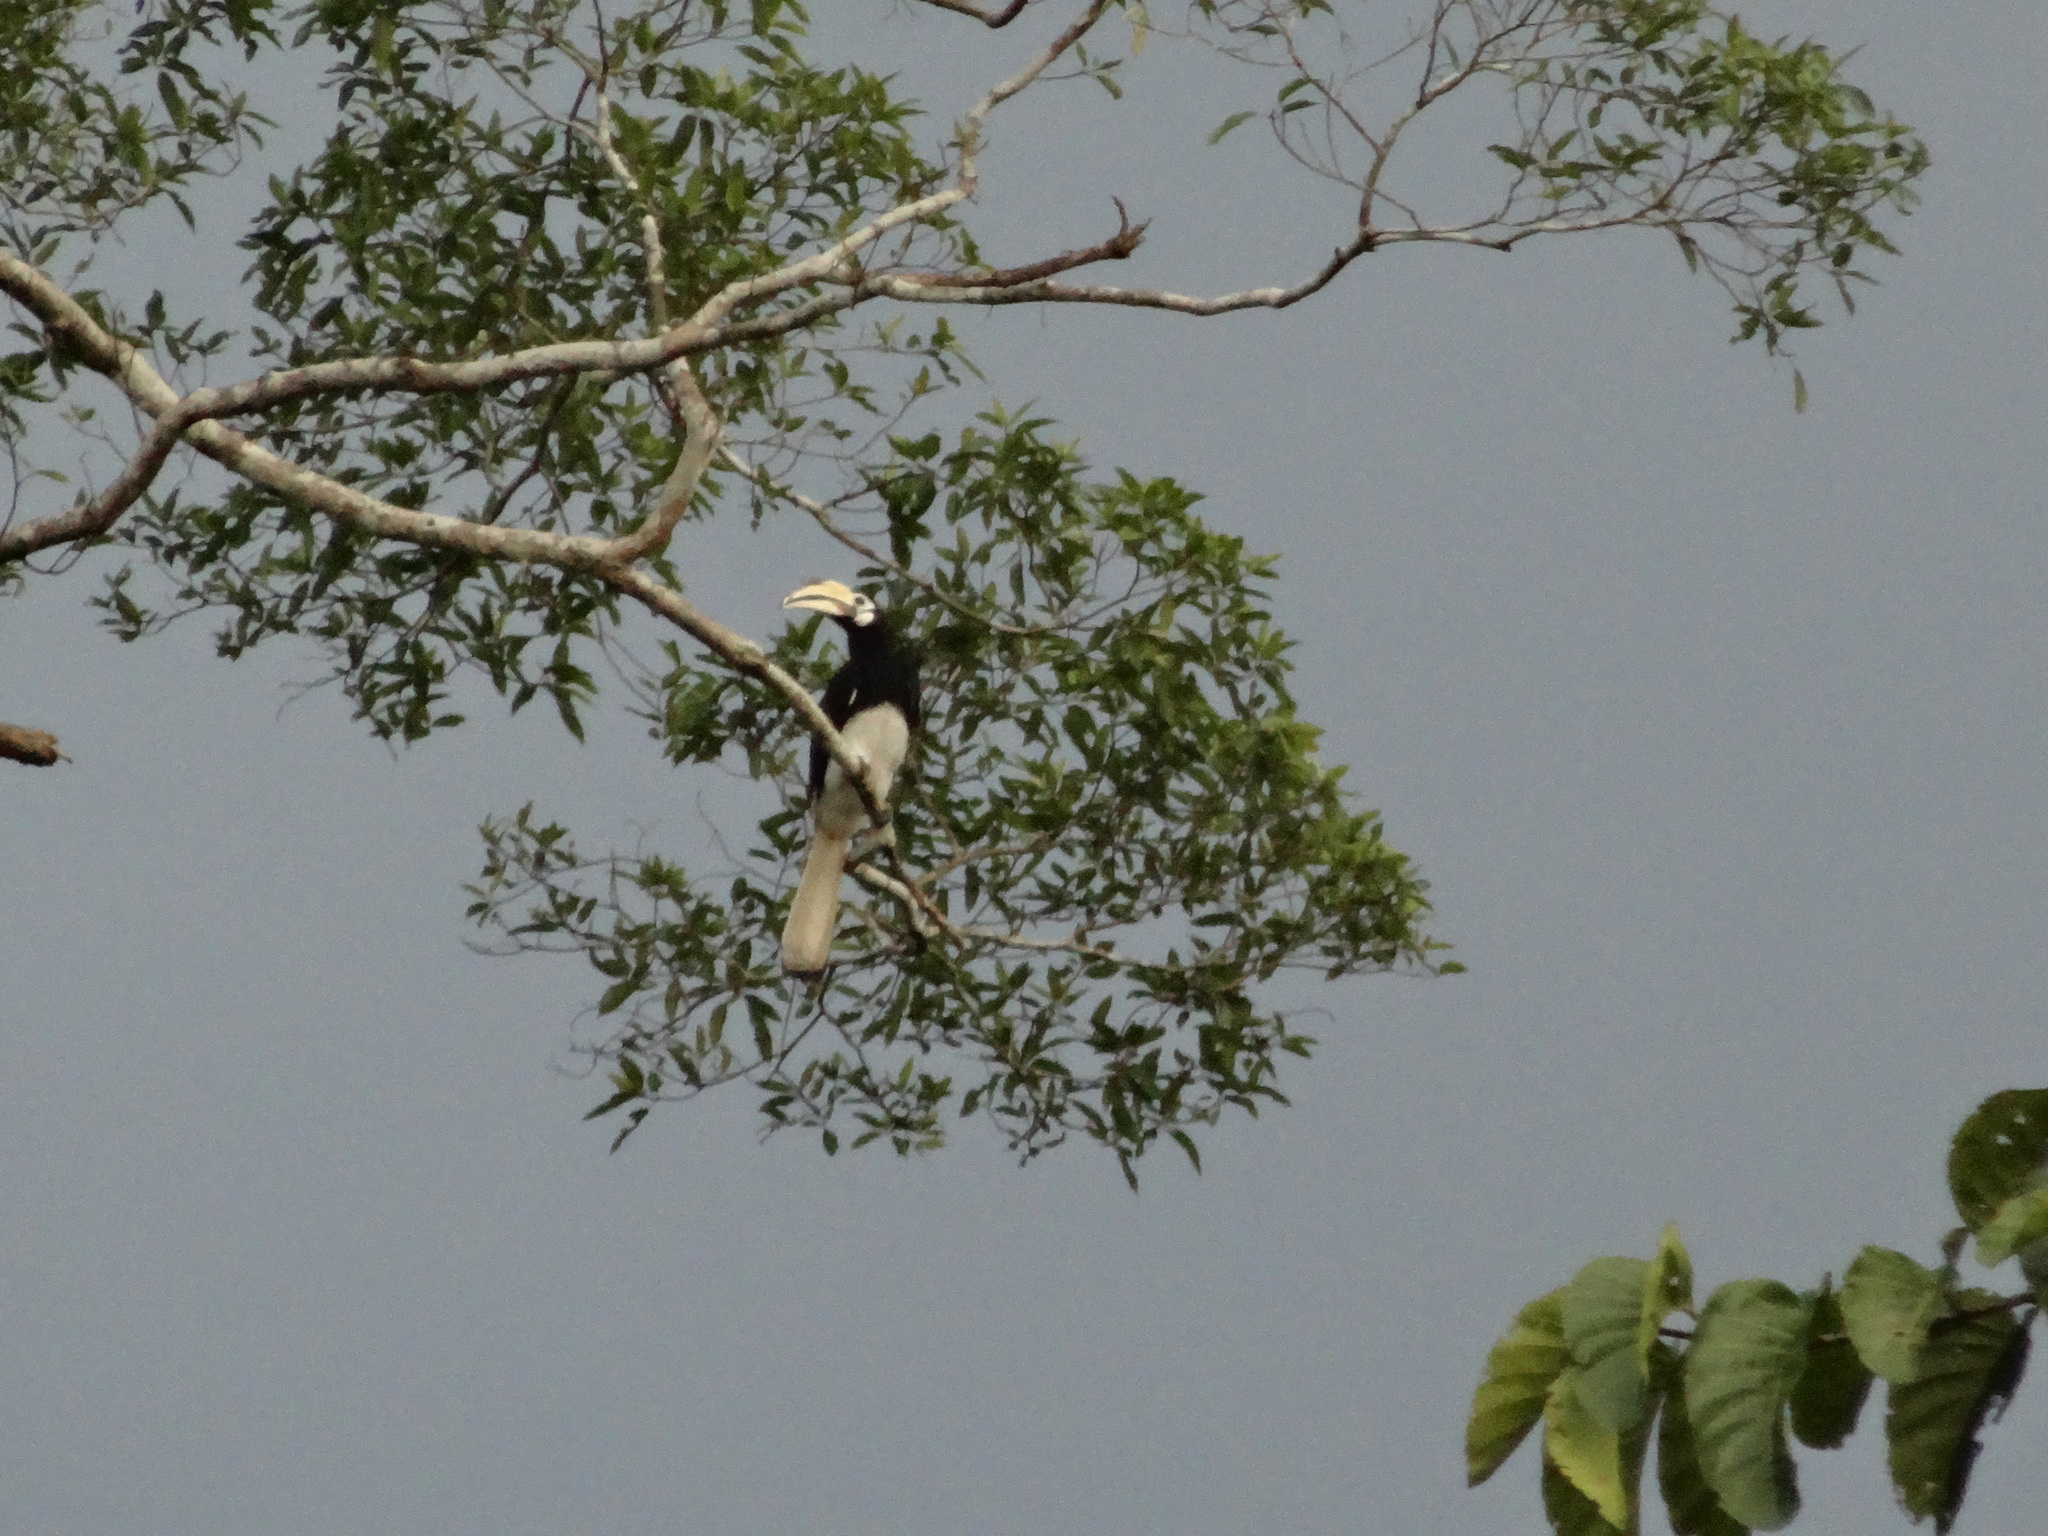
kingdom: Animalia
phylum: Chordata
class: Aves
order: Bucerotiformes
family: Bucerotidae
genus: Anthracoceros
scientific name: Anthracoceros albirostris
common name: Oriental pied-hornbill
